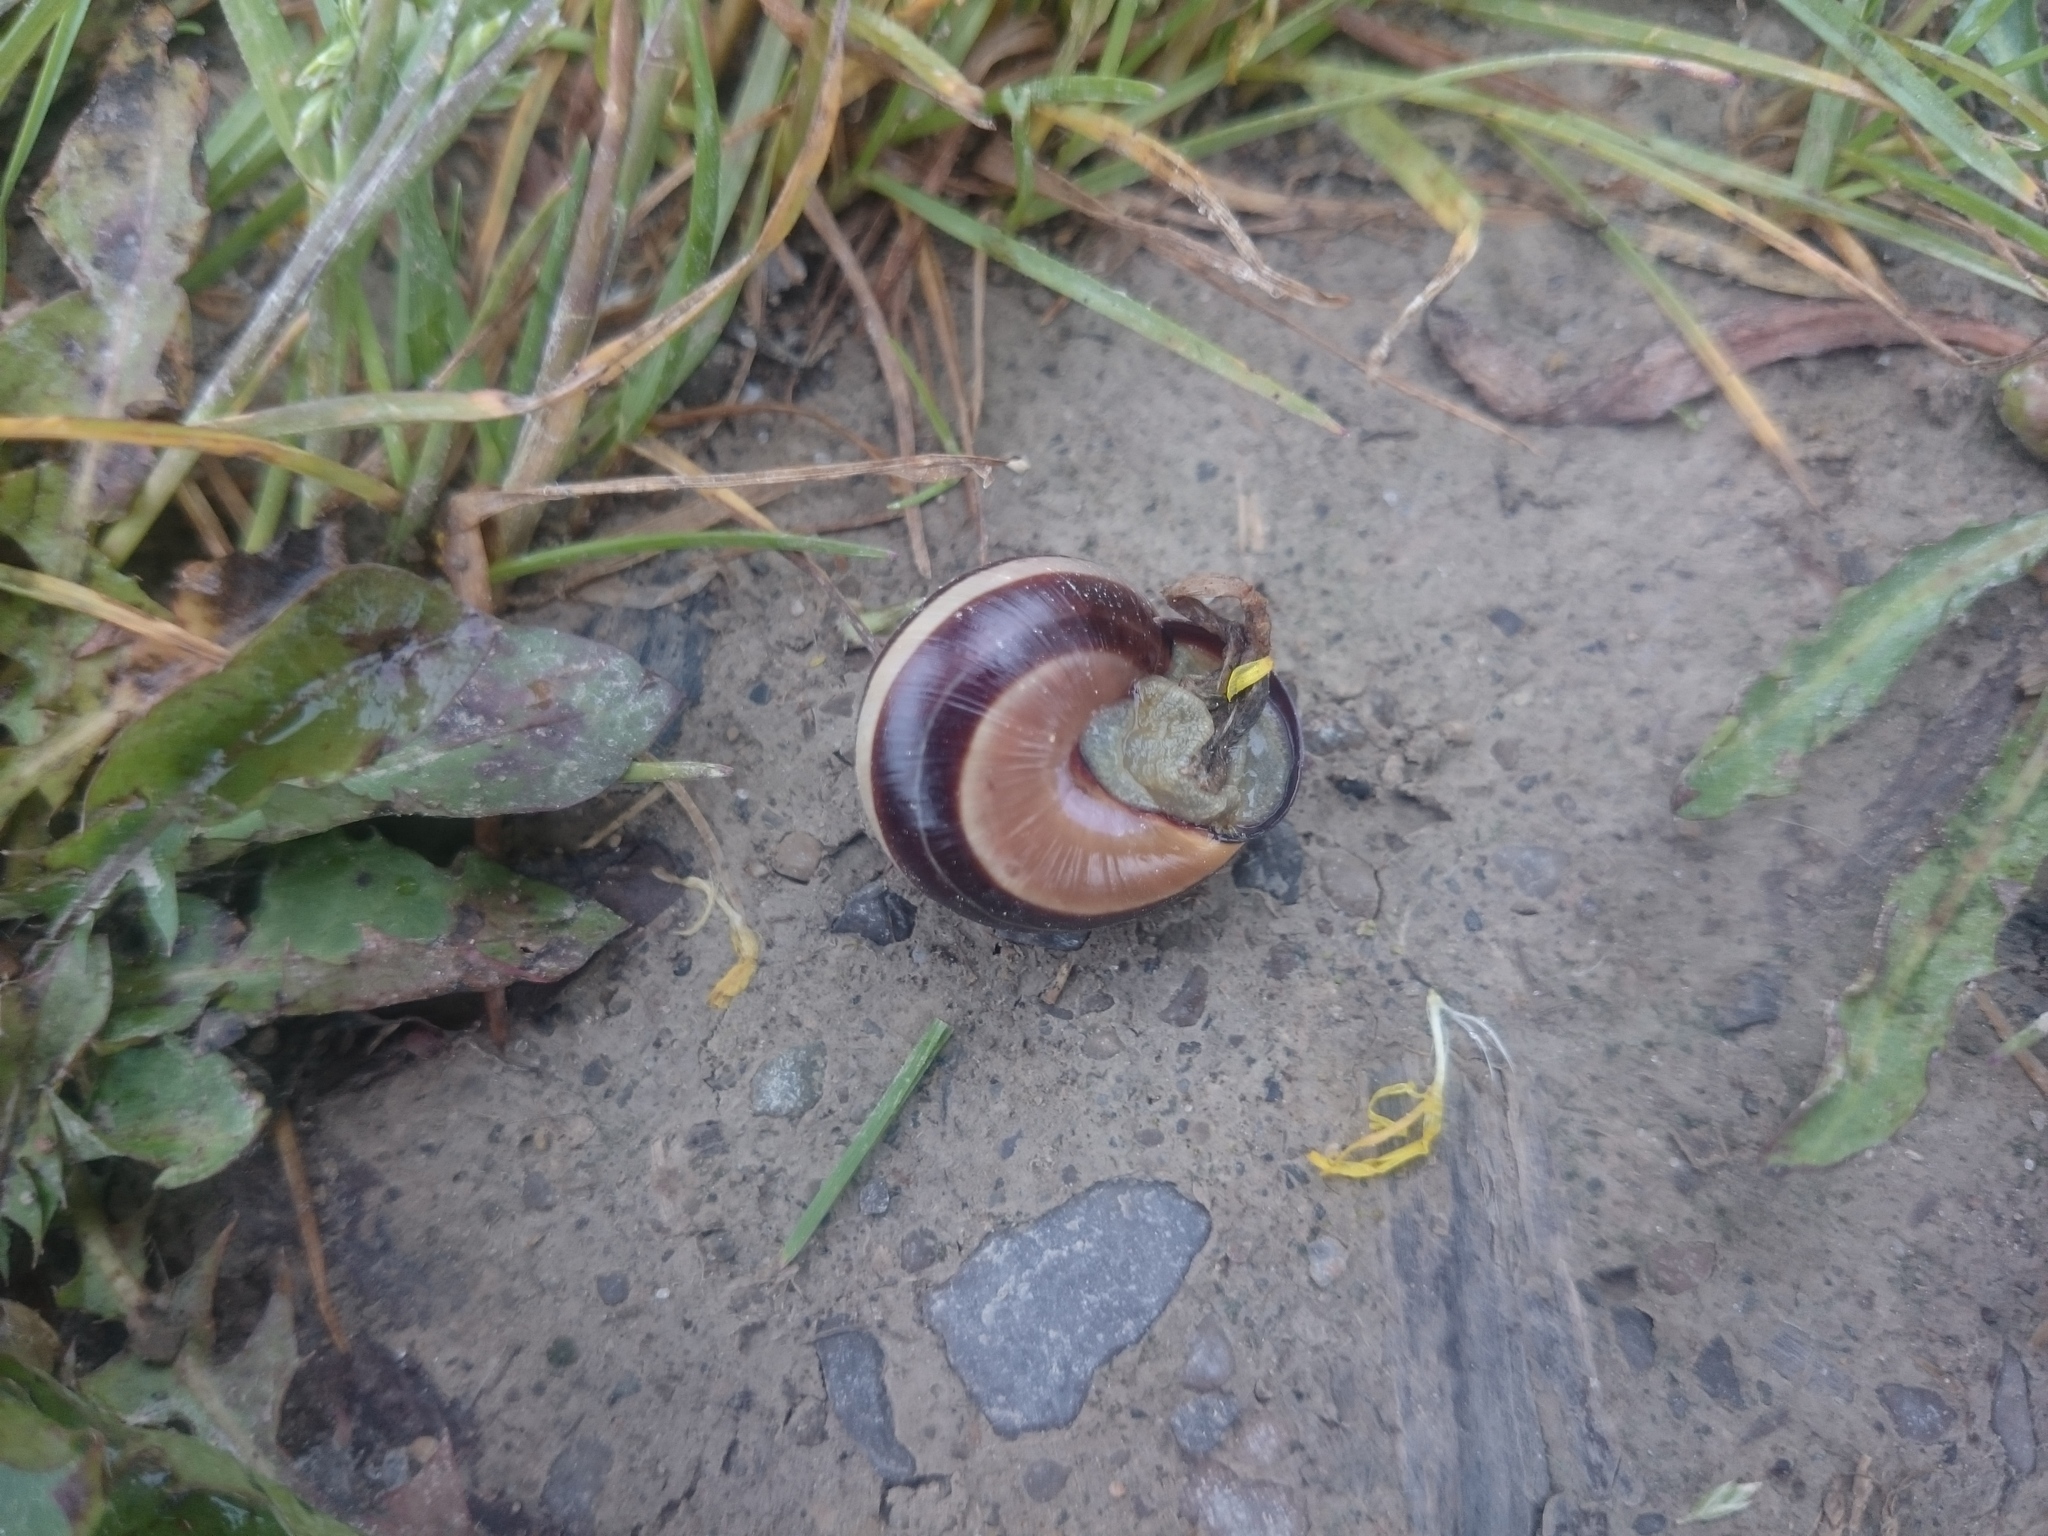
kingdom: Animalia
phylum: Mollusca
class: Gastropoda
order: Stylommatophora
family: Helicidae
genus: Cepaea
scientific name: Cepaea nemoralis
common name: Grovesnail
